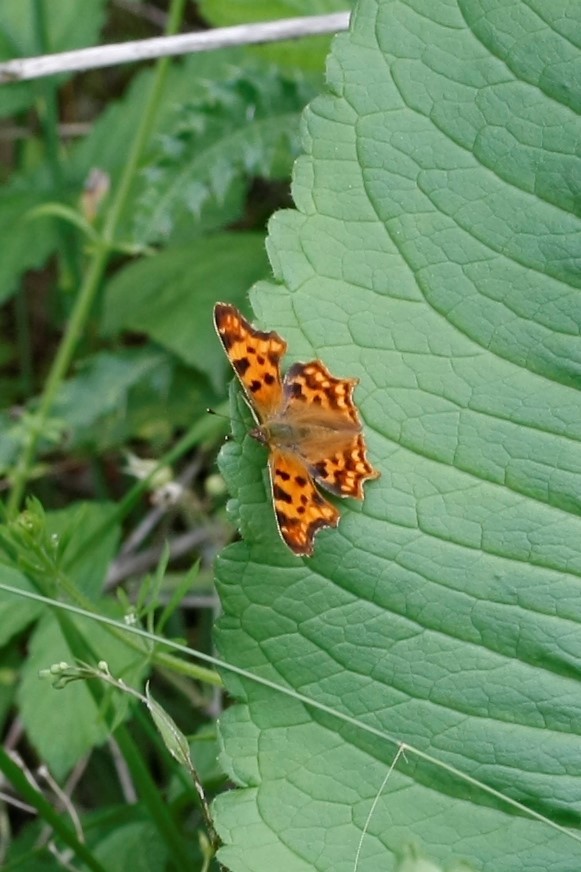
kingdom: Animalia
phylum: Arthropoda
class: Insecta
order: Lepidoptera
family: Nymphalidae
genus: Polygonia
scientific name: Polygonia c-album
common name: Comma
